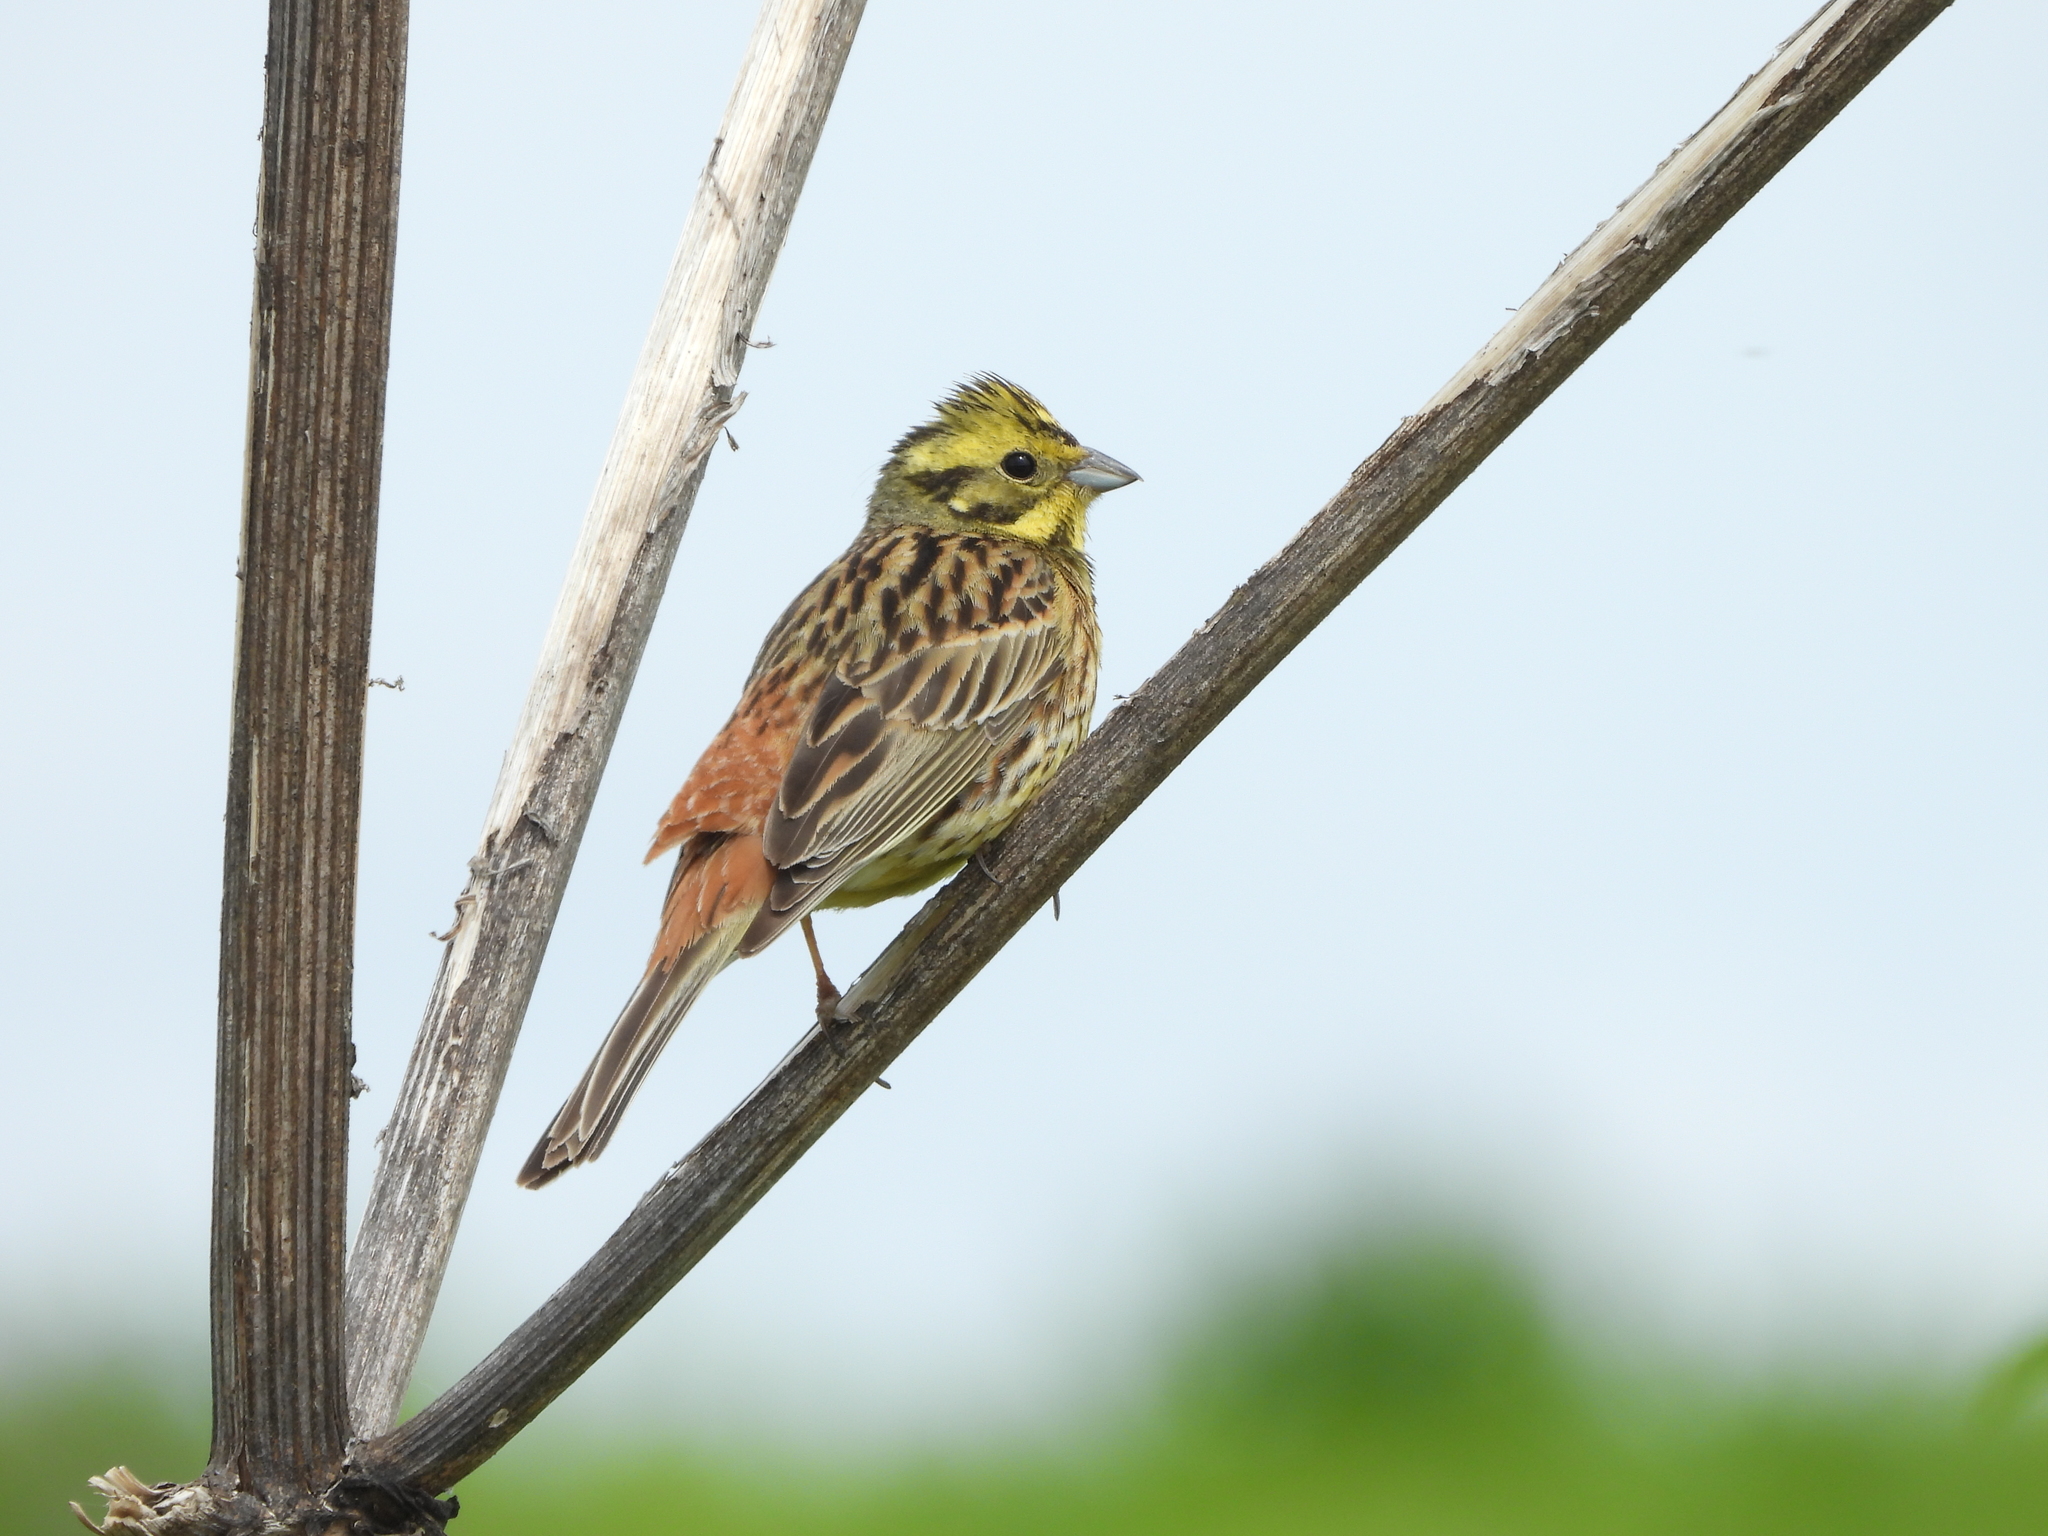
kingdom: Animalia
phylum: Chordata
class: Aves
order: Passeriformes
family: Emberizidae
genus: Emberiza
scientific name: Emberiza citrinella
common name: Yellowhammer
